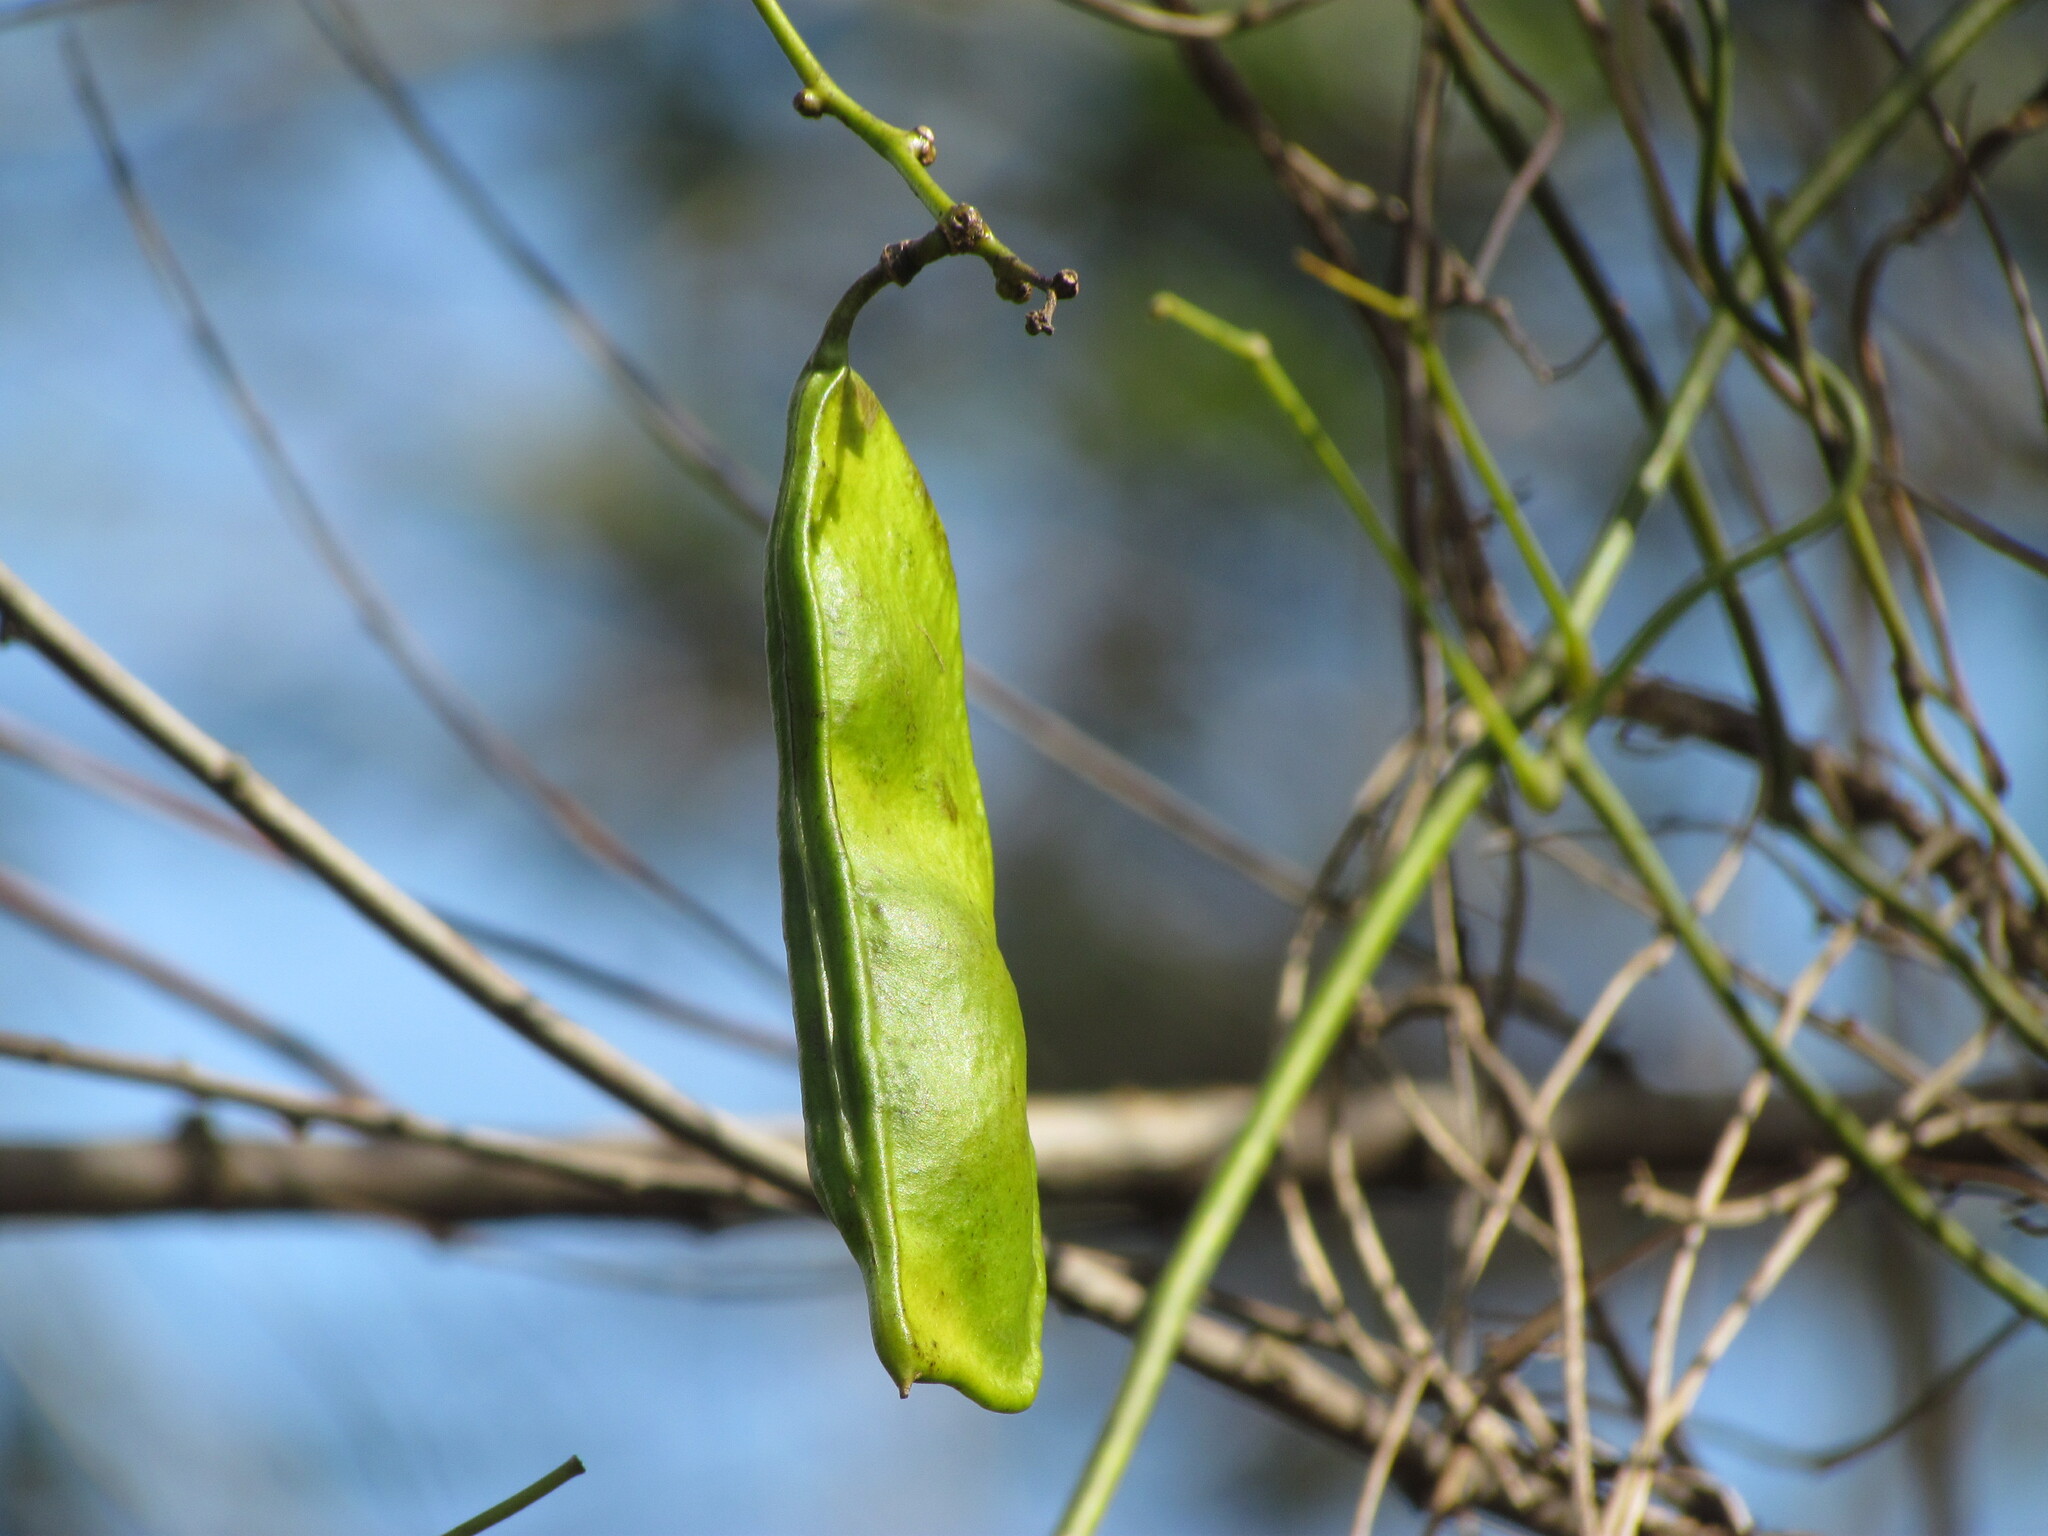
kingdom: Plantae
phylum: Tracheophyta
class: Magnoliopsida
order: Fabales
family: Fabaceae
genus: Canavalia
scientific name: Canavalia bonariensis
